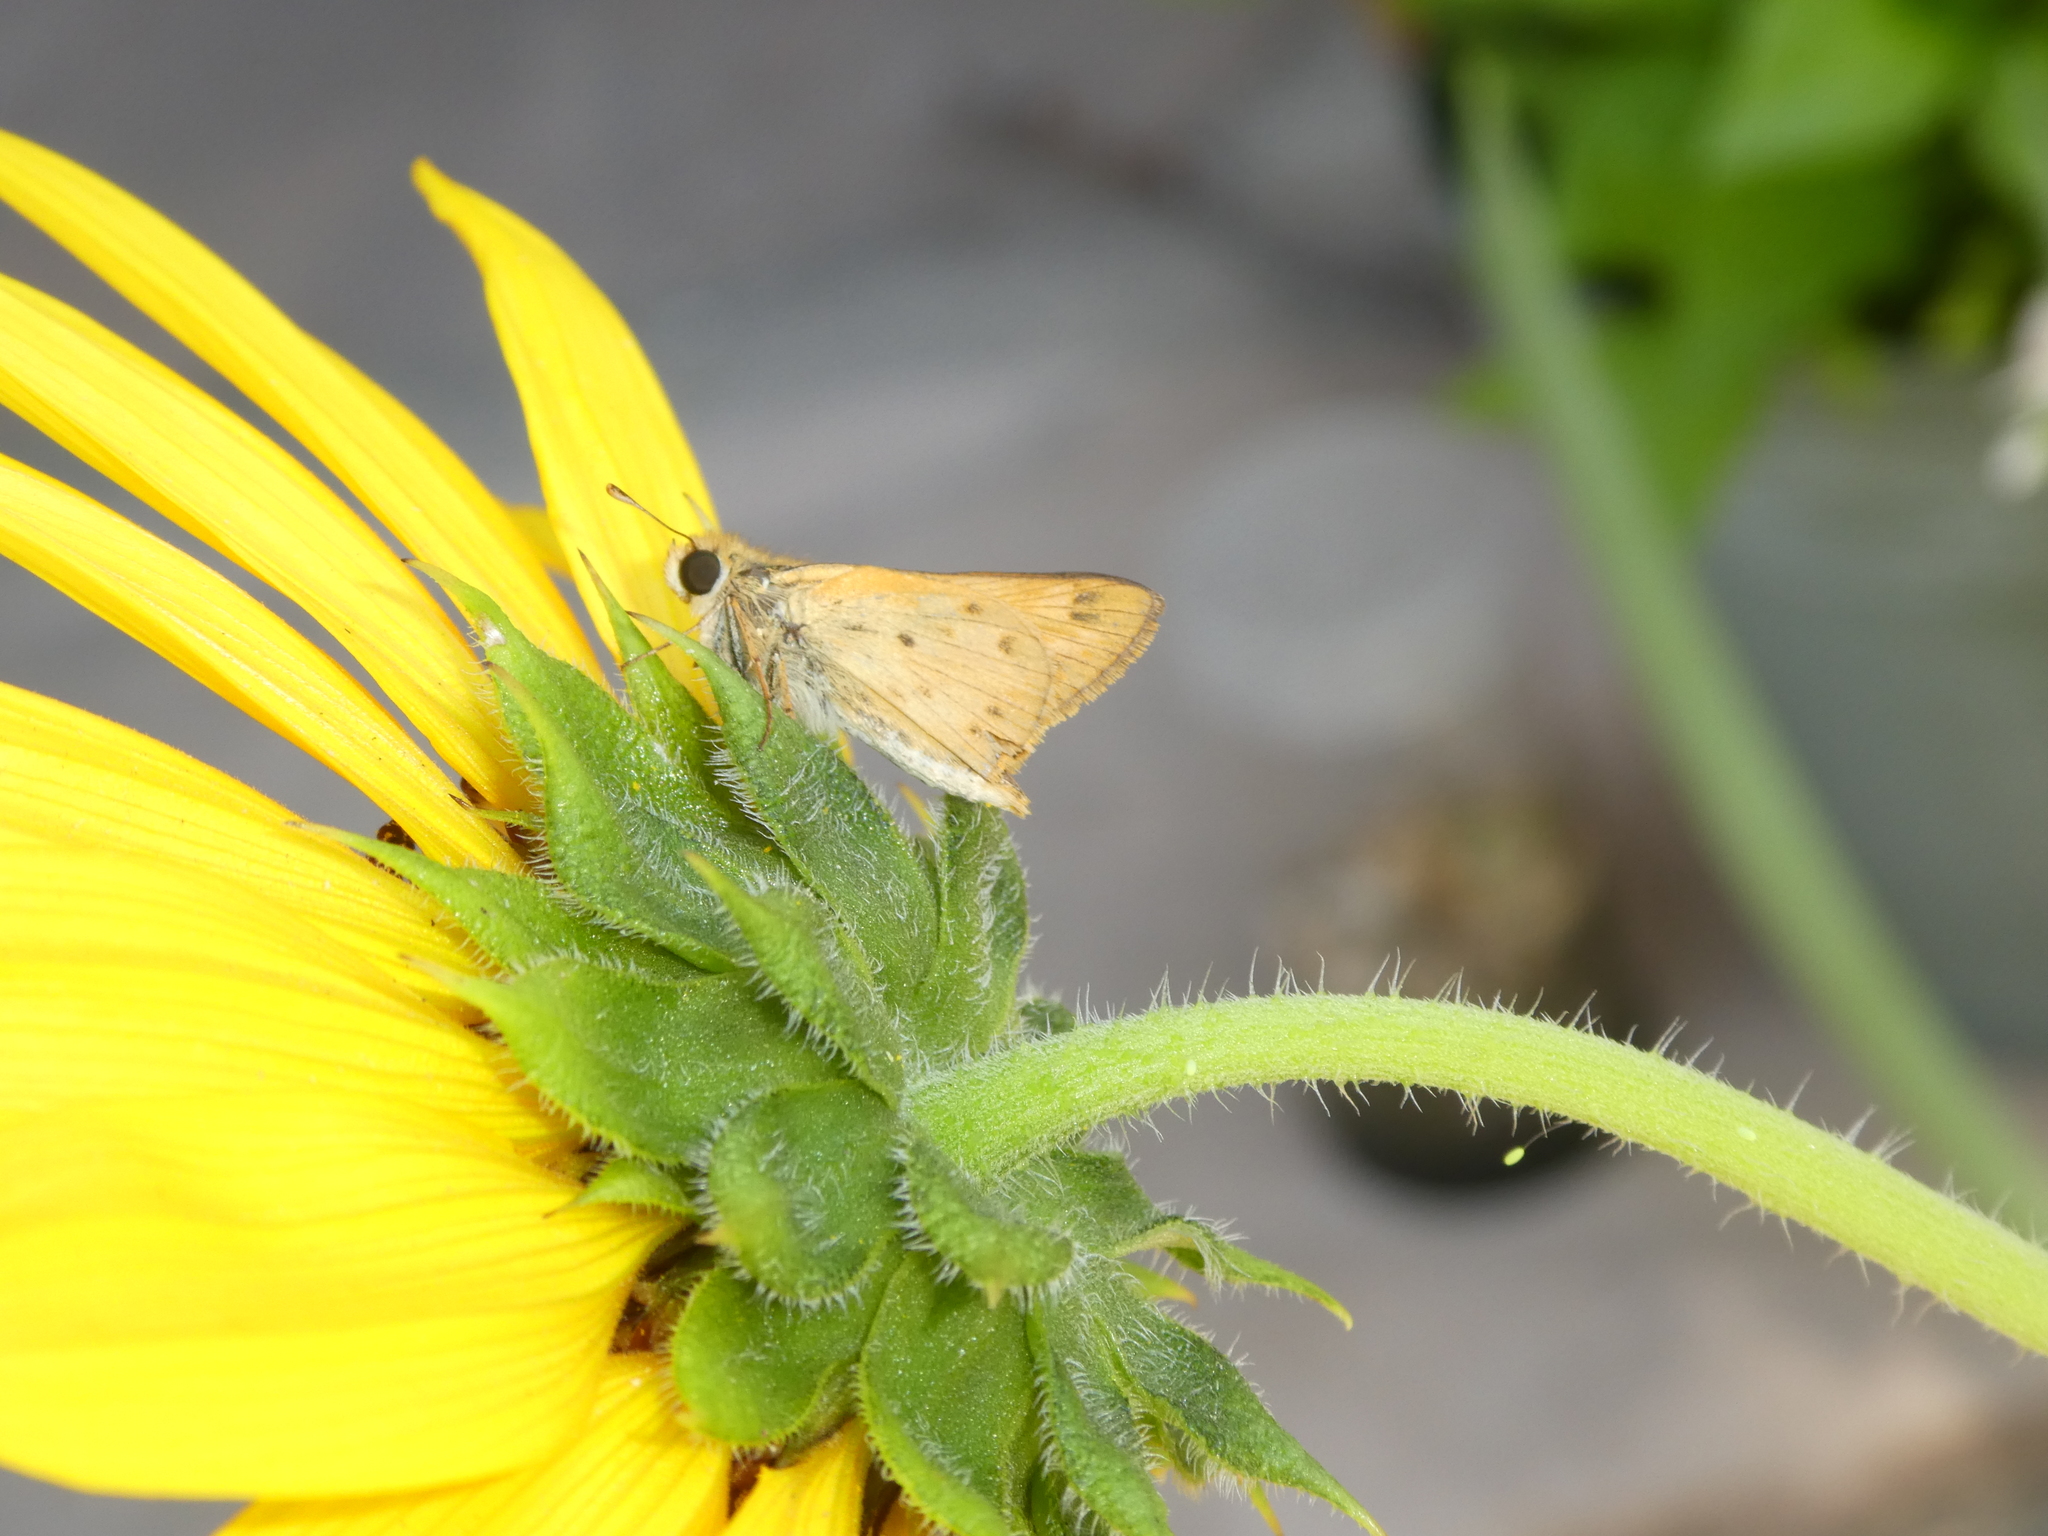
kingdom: Animalia
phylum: Arthropoda
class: Insecta
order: Lepidoptera
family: Hesperiidae
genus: Hylephila
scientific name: Hylephila phyleus
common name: Fiery skipper
